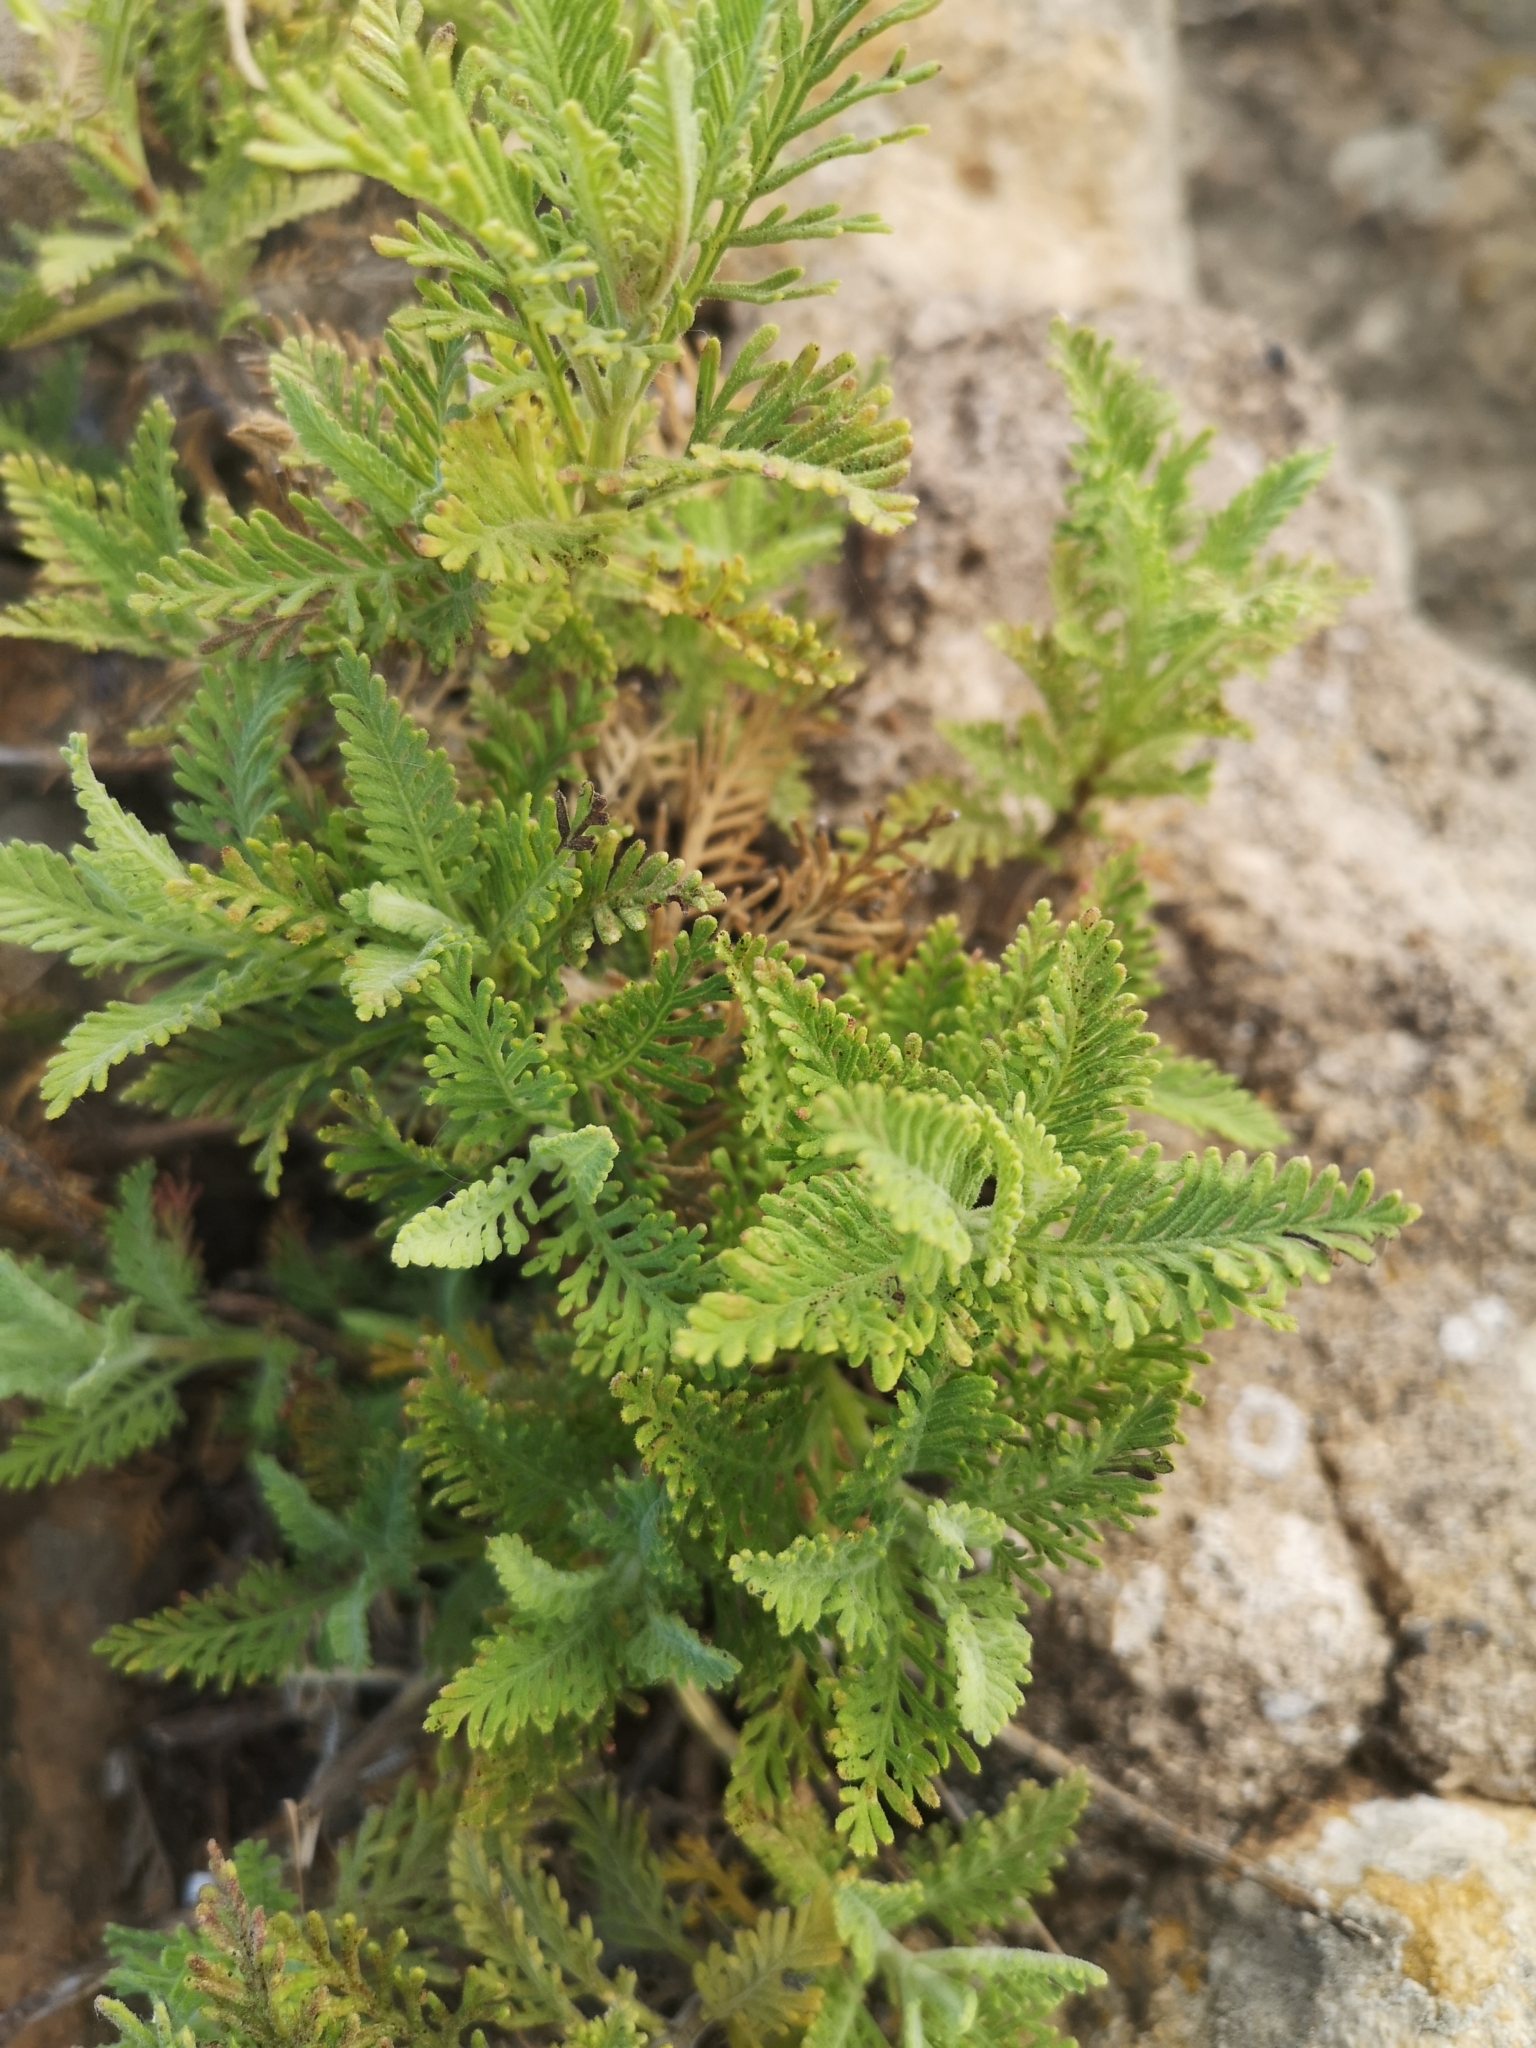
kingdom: Plantae
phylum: Tracheophyta
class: Magnoliopsida
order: Lamiales
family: Lamiaceae
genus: Lavandula
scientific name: Lavandula canariensis
